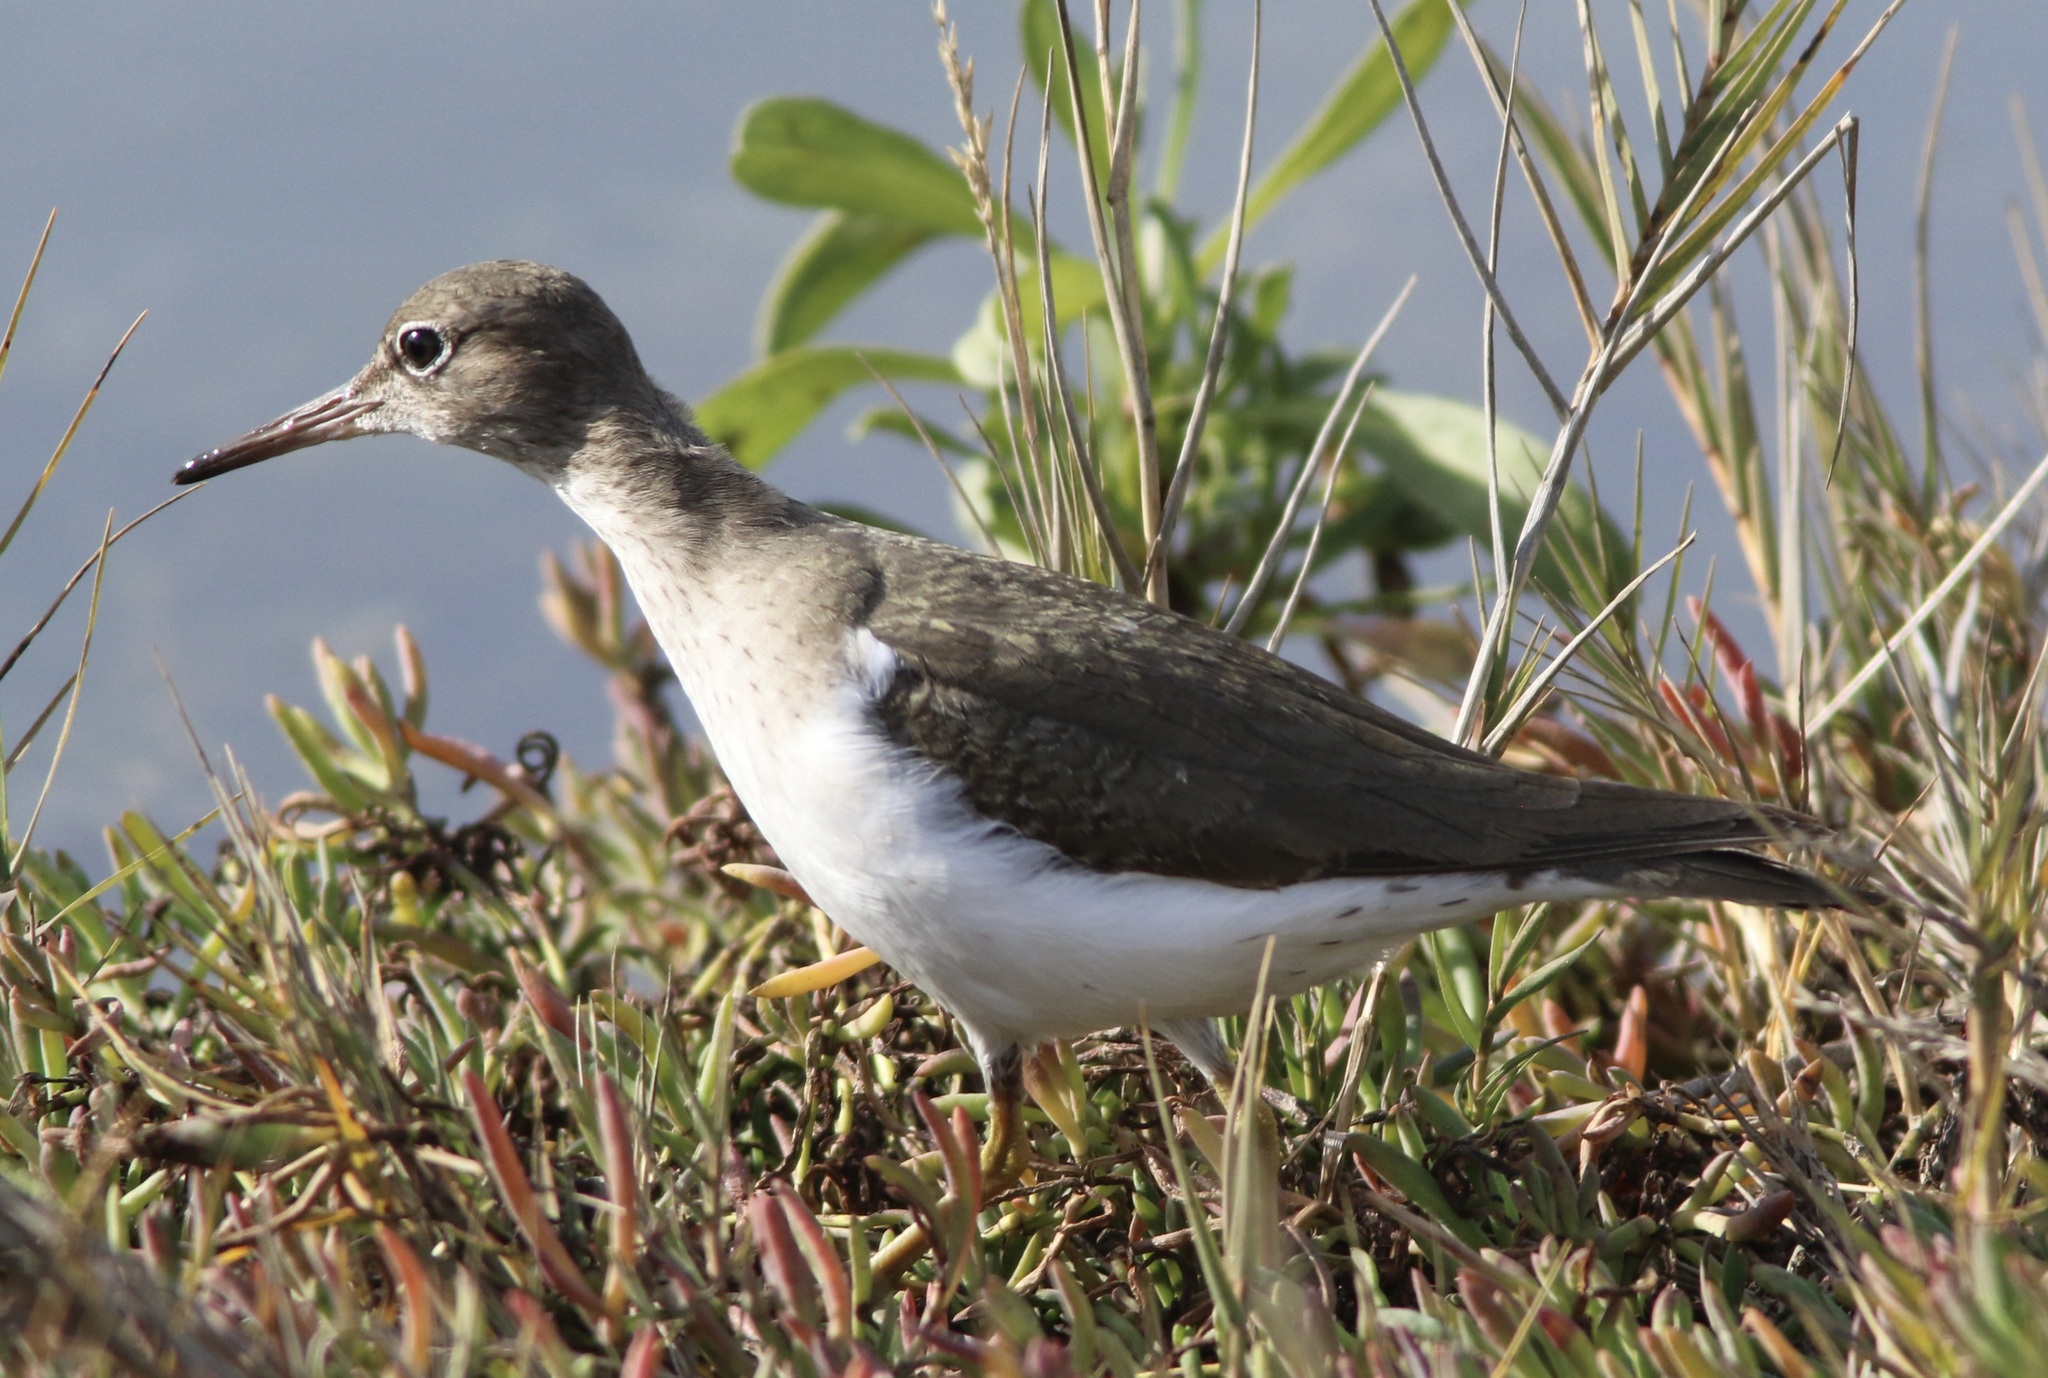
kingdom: Animalia
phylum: Chordata
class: Aves
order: Charadriiformes
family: Scolopacidae
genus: Actitis
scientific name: Actitis macularius
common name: Spotted sandpiper
